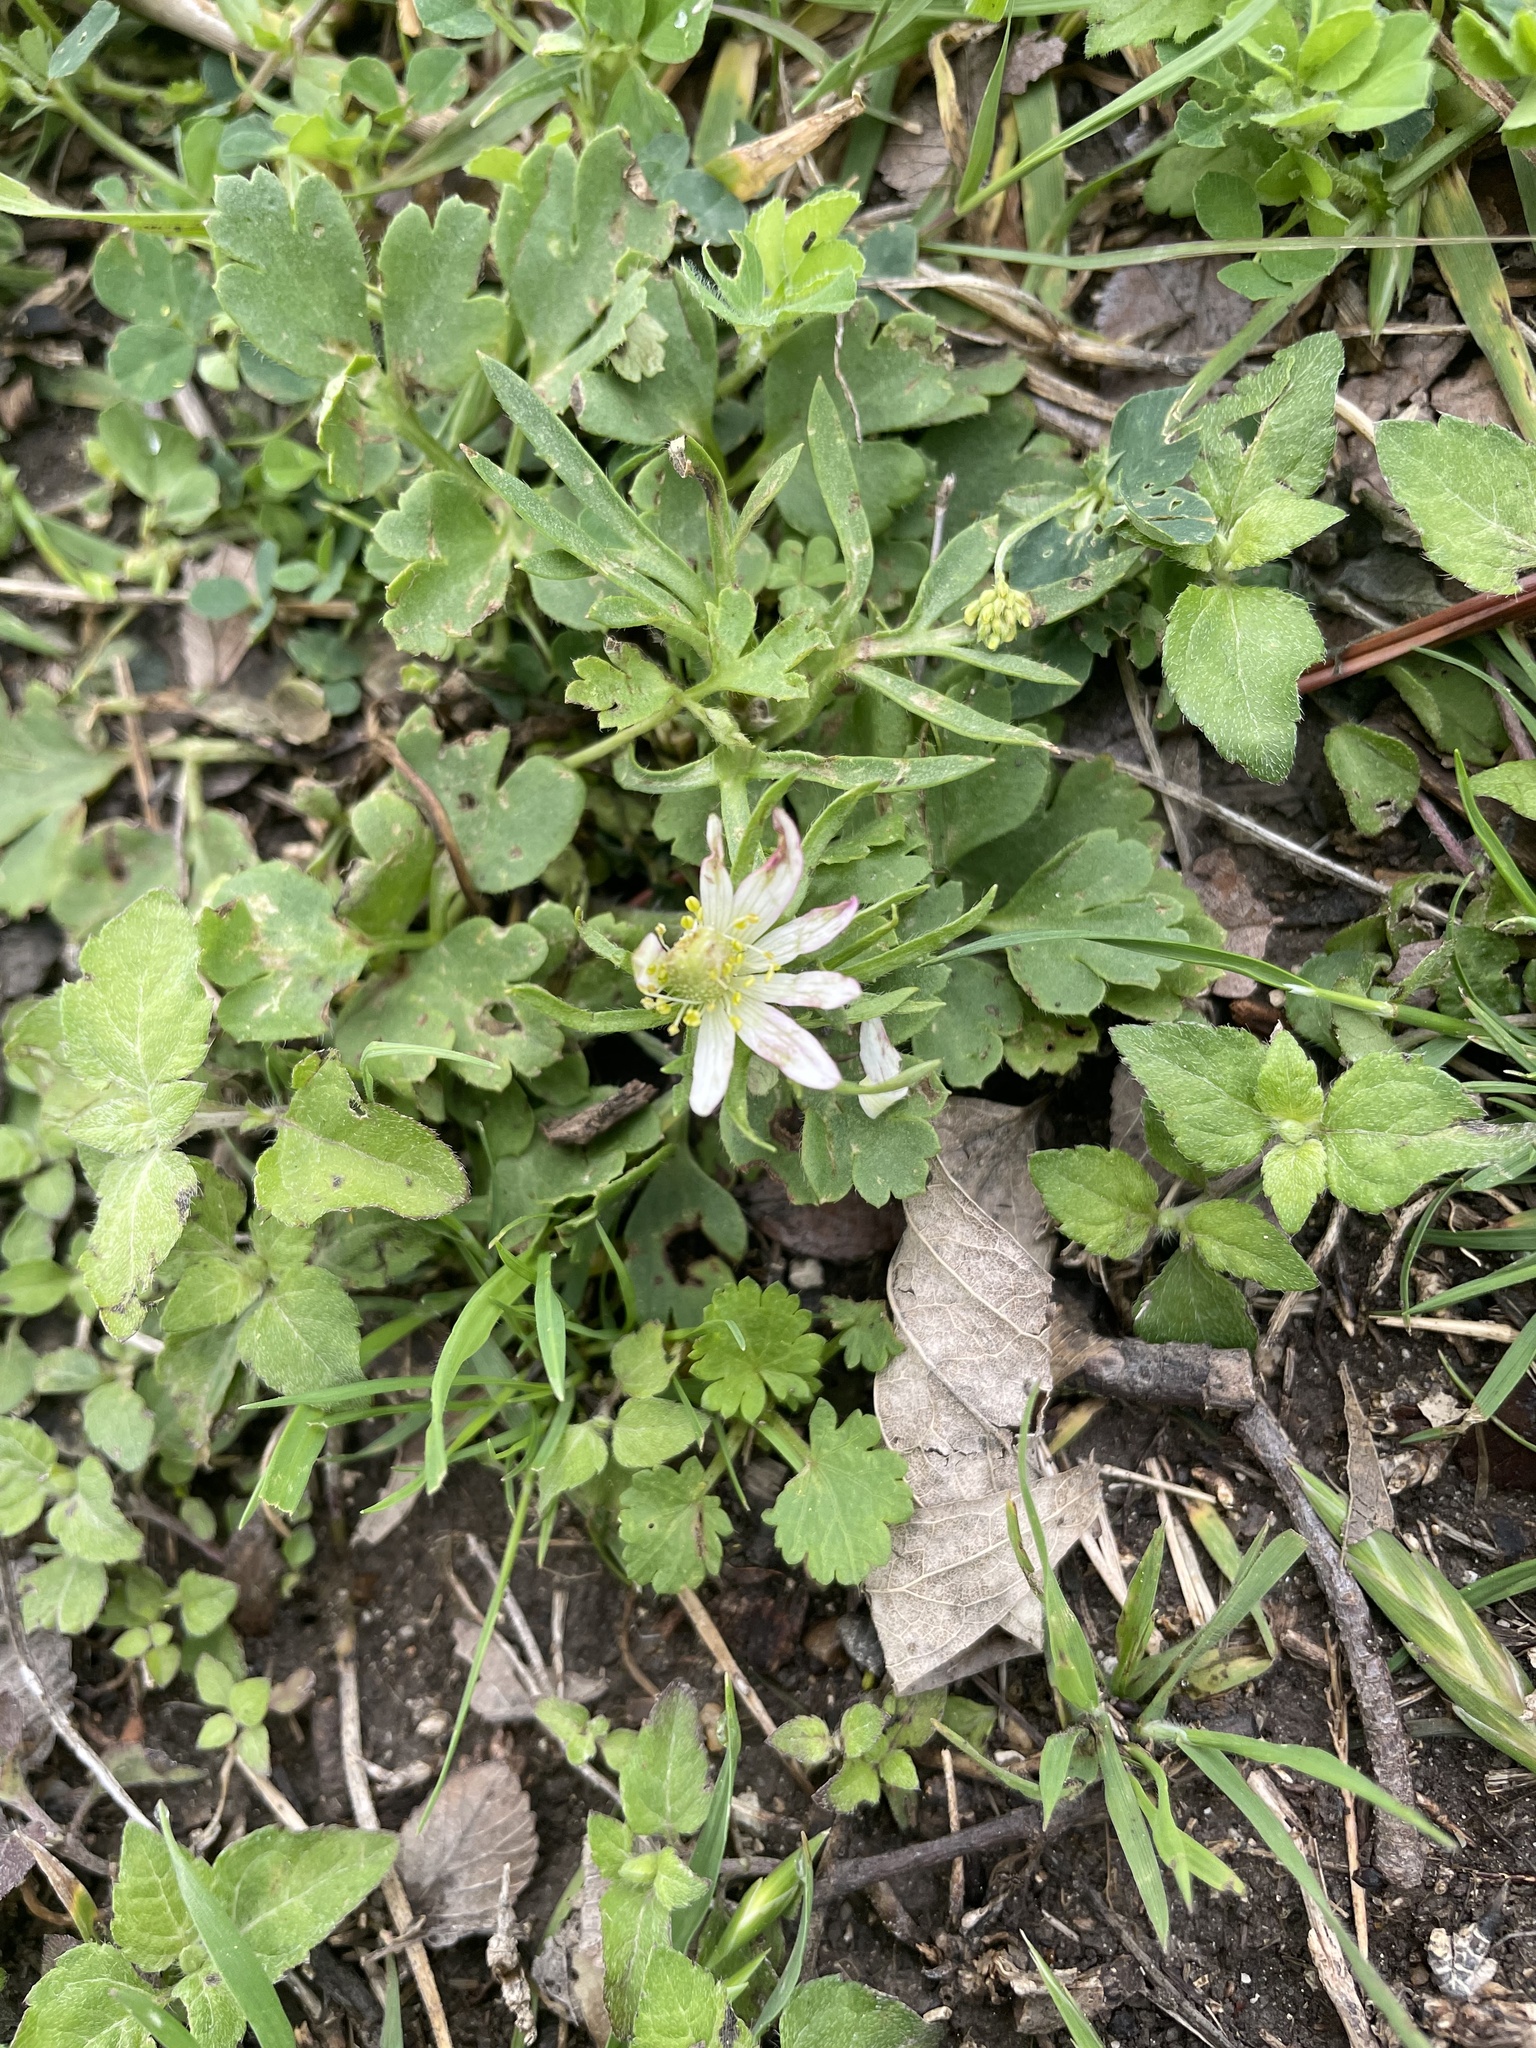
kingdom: Plantae
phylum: Tracheophyta
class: Magnoliopsida
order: Ranunculales
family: Ranunculaceae
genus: Anemone
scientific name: Anemone berlandieri
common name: Ten-petal anemone
